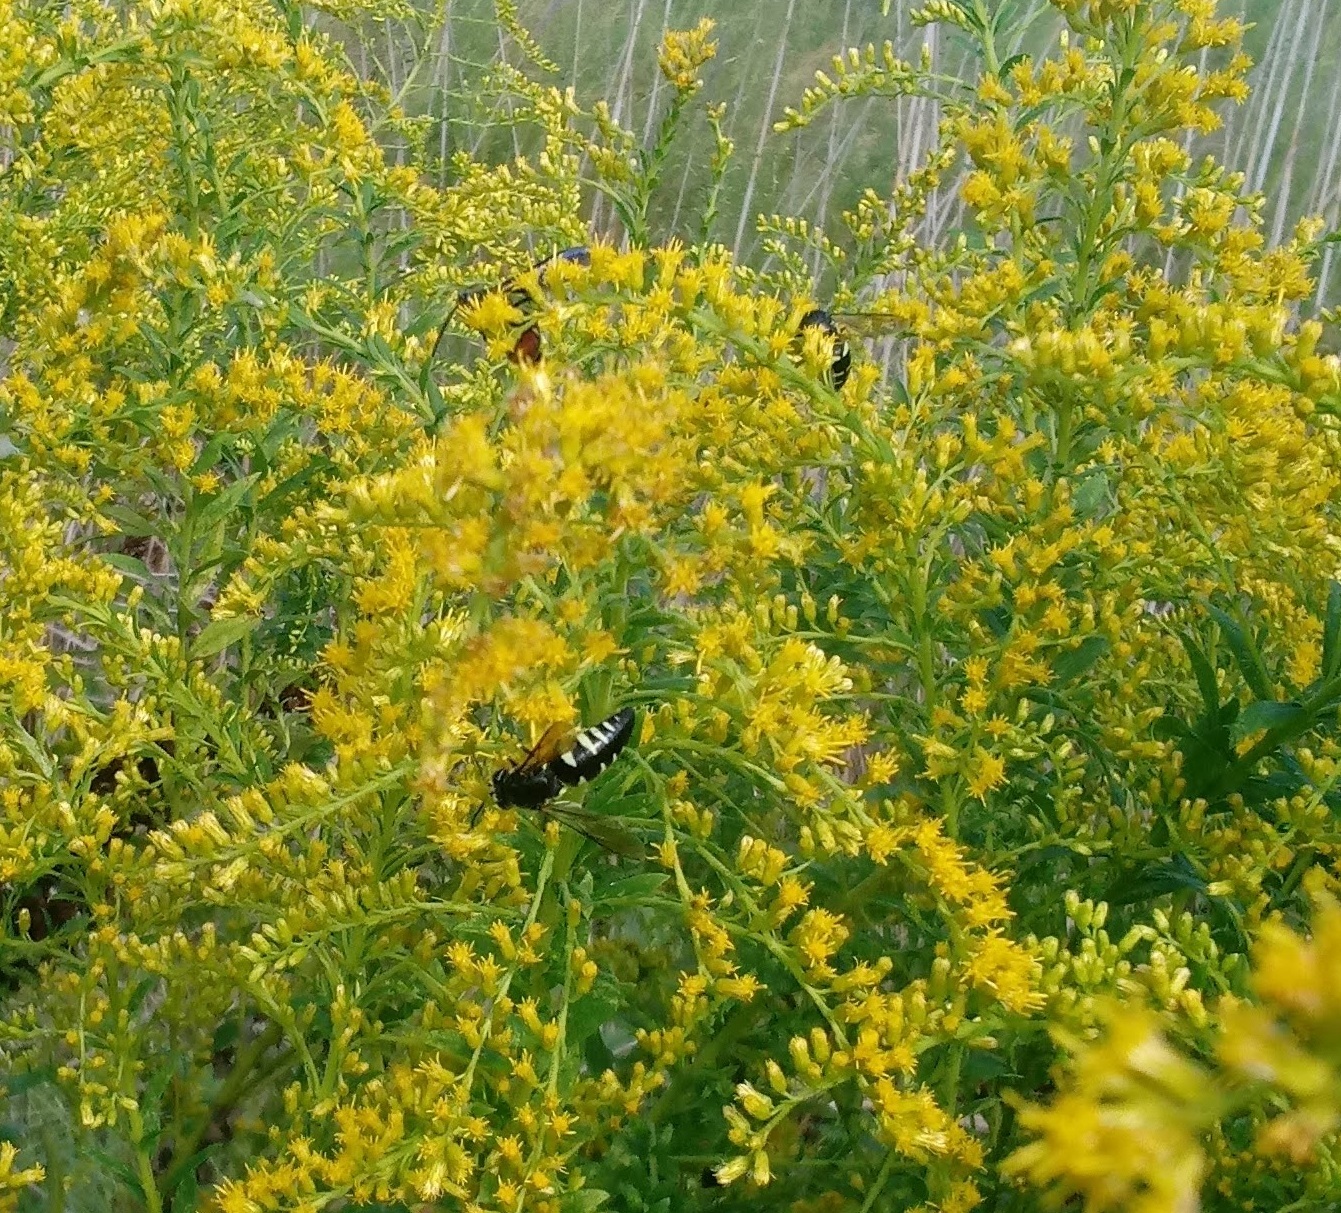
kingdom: Animalia
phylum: Arthropoda
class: Insecta
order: Hymenoptera
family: Crabronidae
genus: Bicyrtes
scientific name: Bicyrtes quadrifasciatus
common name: Four-banded stink bug hunter wasp
